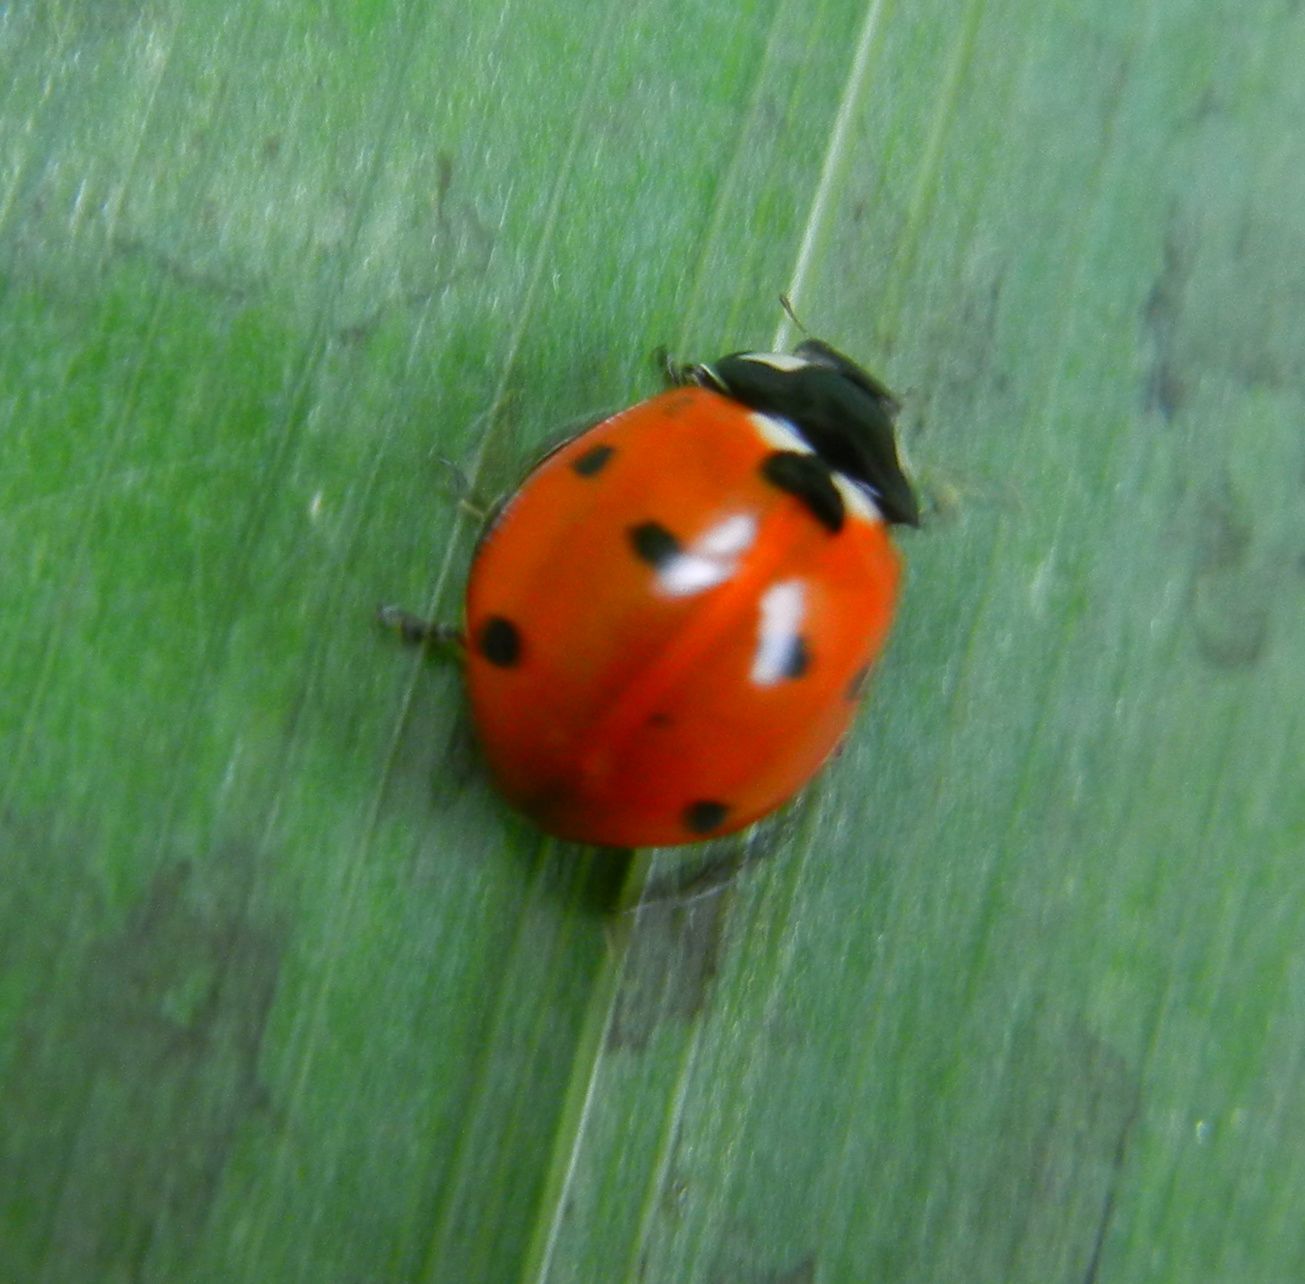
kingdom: Animalia
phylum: Arthropoda
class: Insecta
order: Coleoptera
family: Coccinellidae
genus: Coccinella
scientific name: Coccinella septempunctata
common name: Sevenspotted lady beetle
